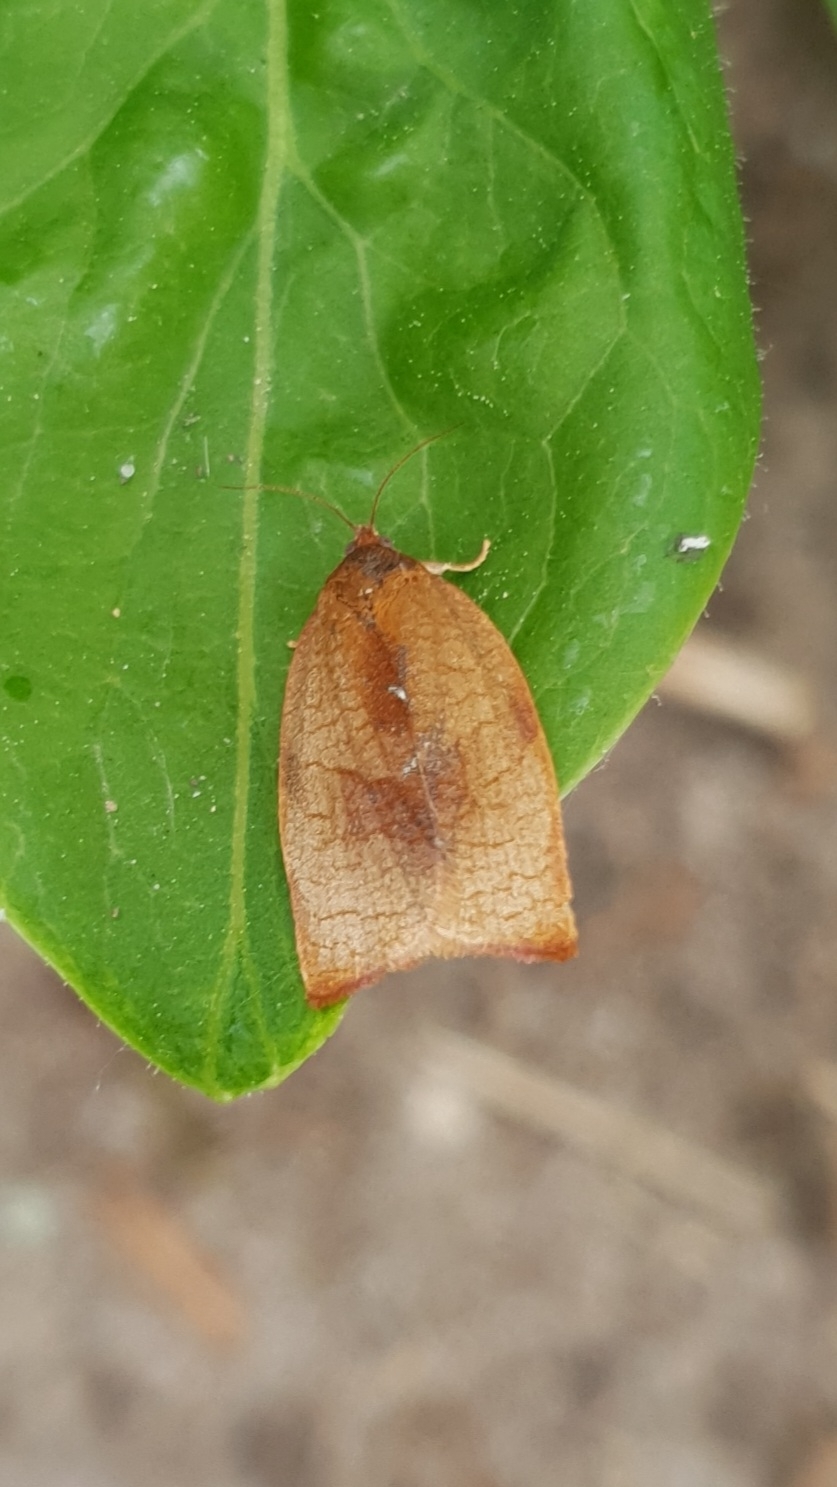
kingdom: Animalia
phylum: Arthropoda
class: Insecta
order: Lepidoptera
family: Tortricidae
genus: Cacoecimorpha
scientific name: Cacoecimorpha pronubana
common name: Carnation tortrix
